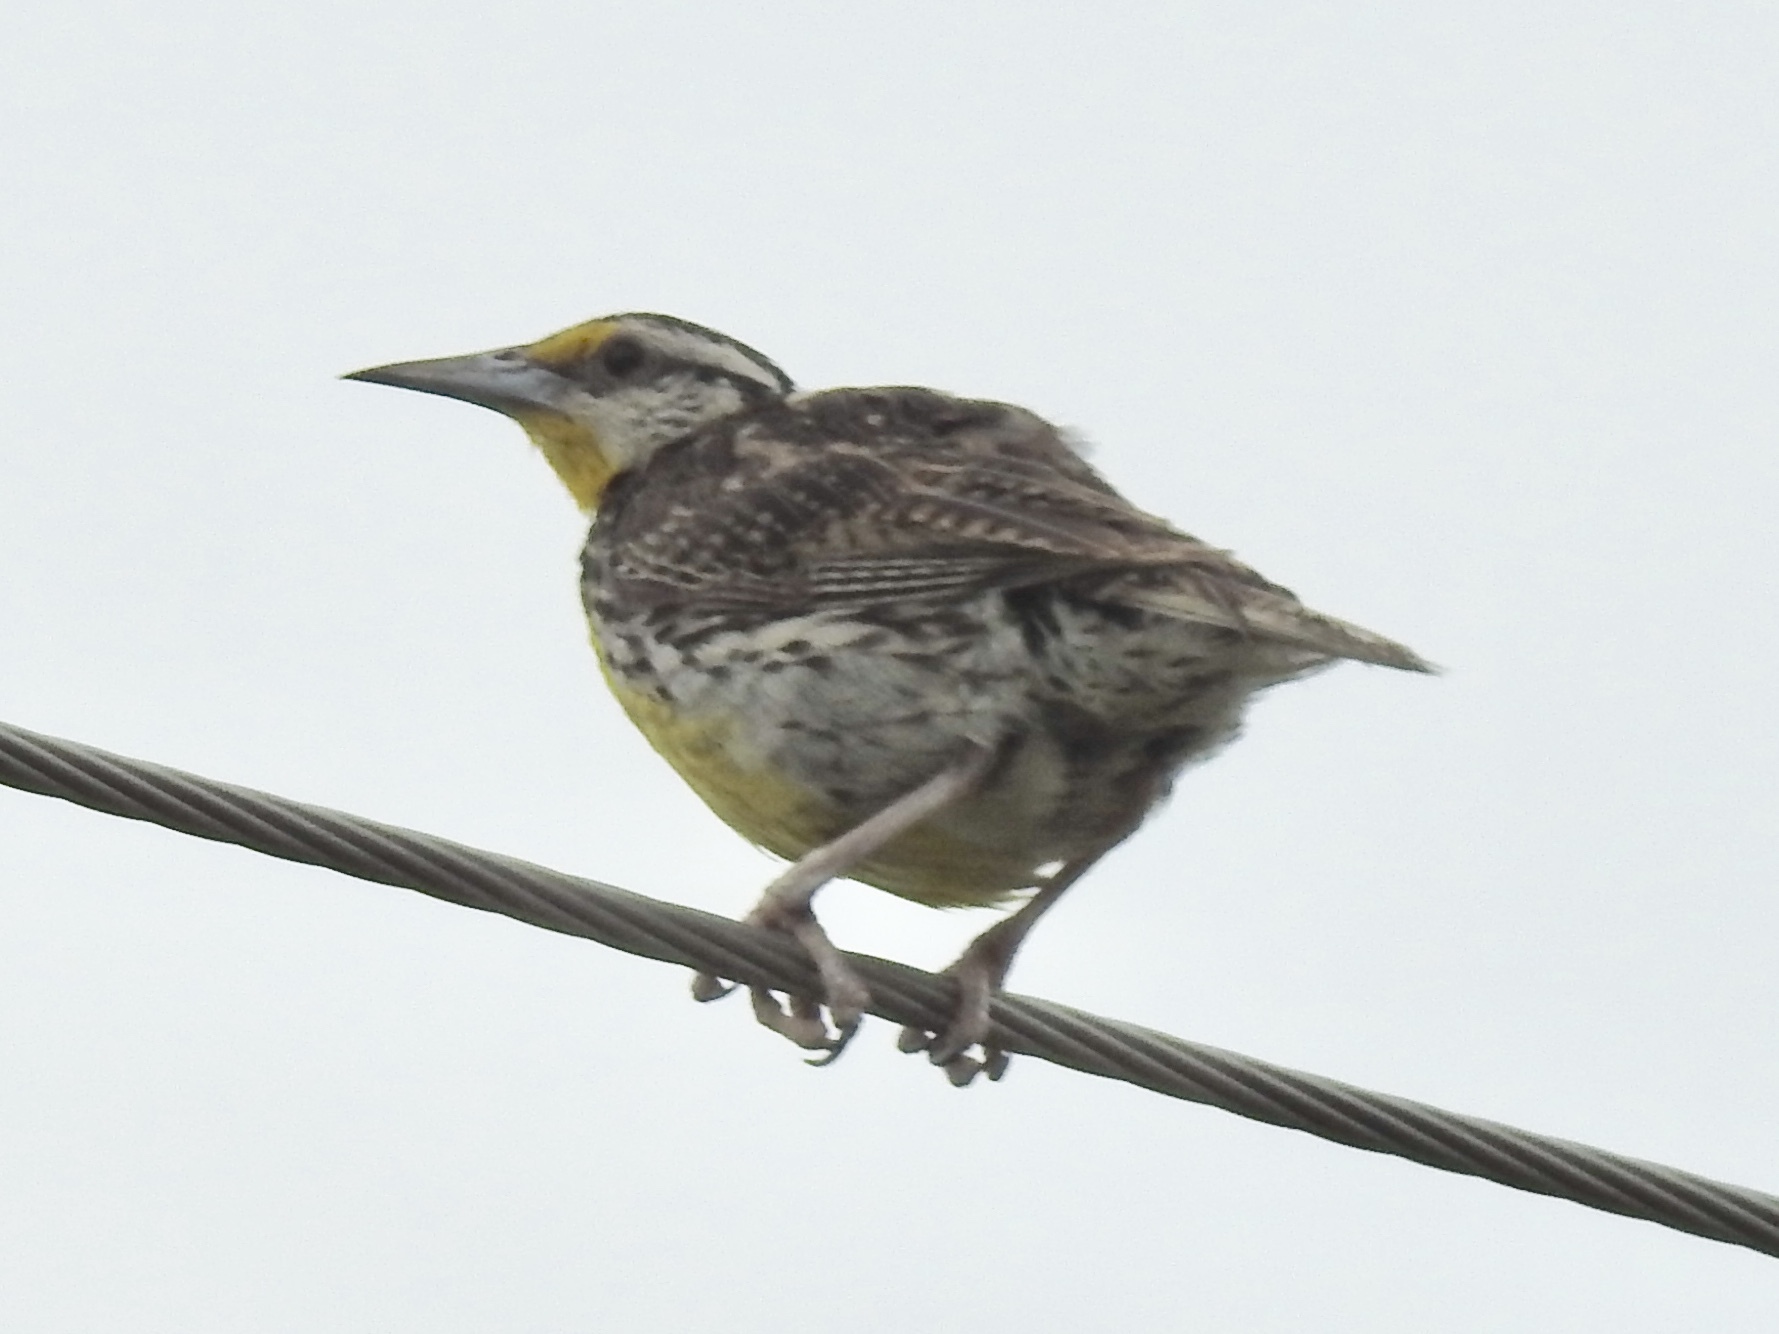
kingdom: Animalia
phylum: Chordata
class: Aves
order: Passeriformes
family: Icteridae
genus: Sturnella
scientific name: Sturnella magna
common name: Eastern meadowlark
